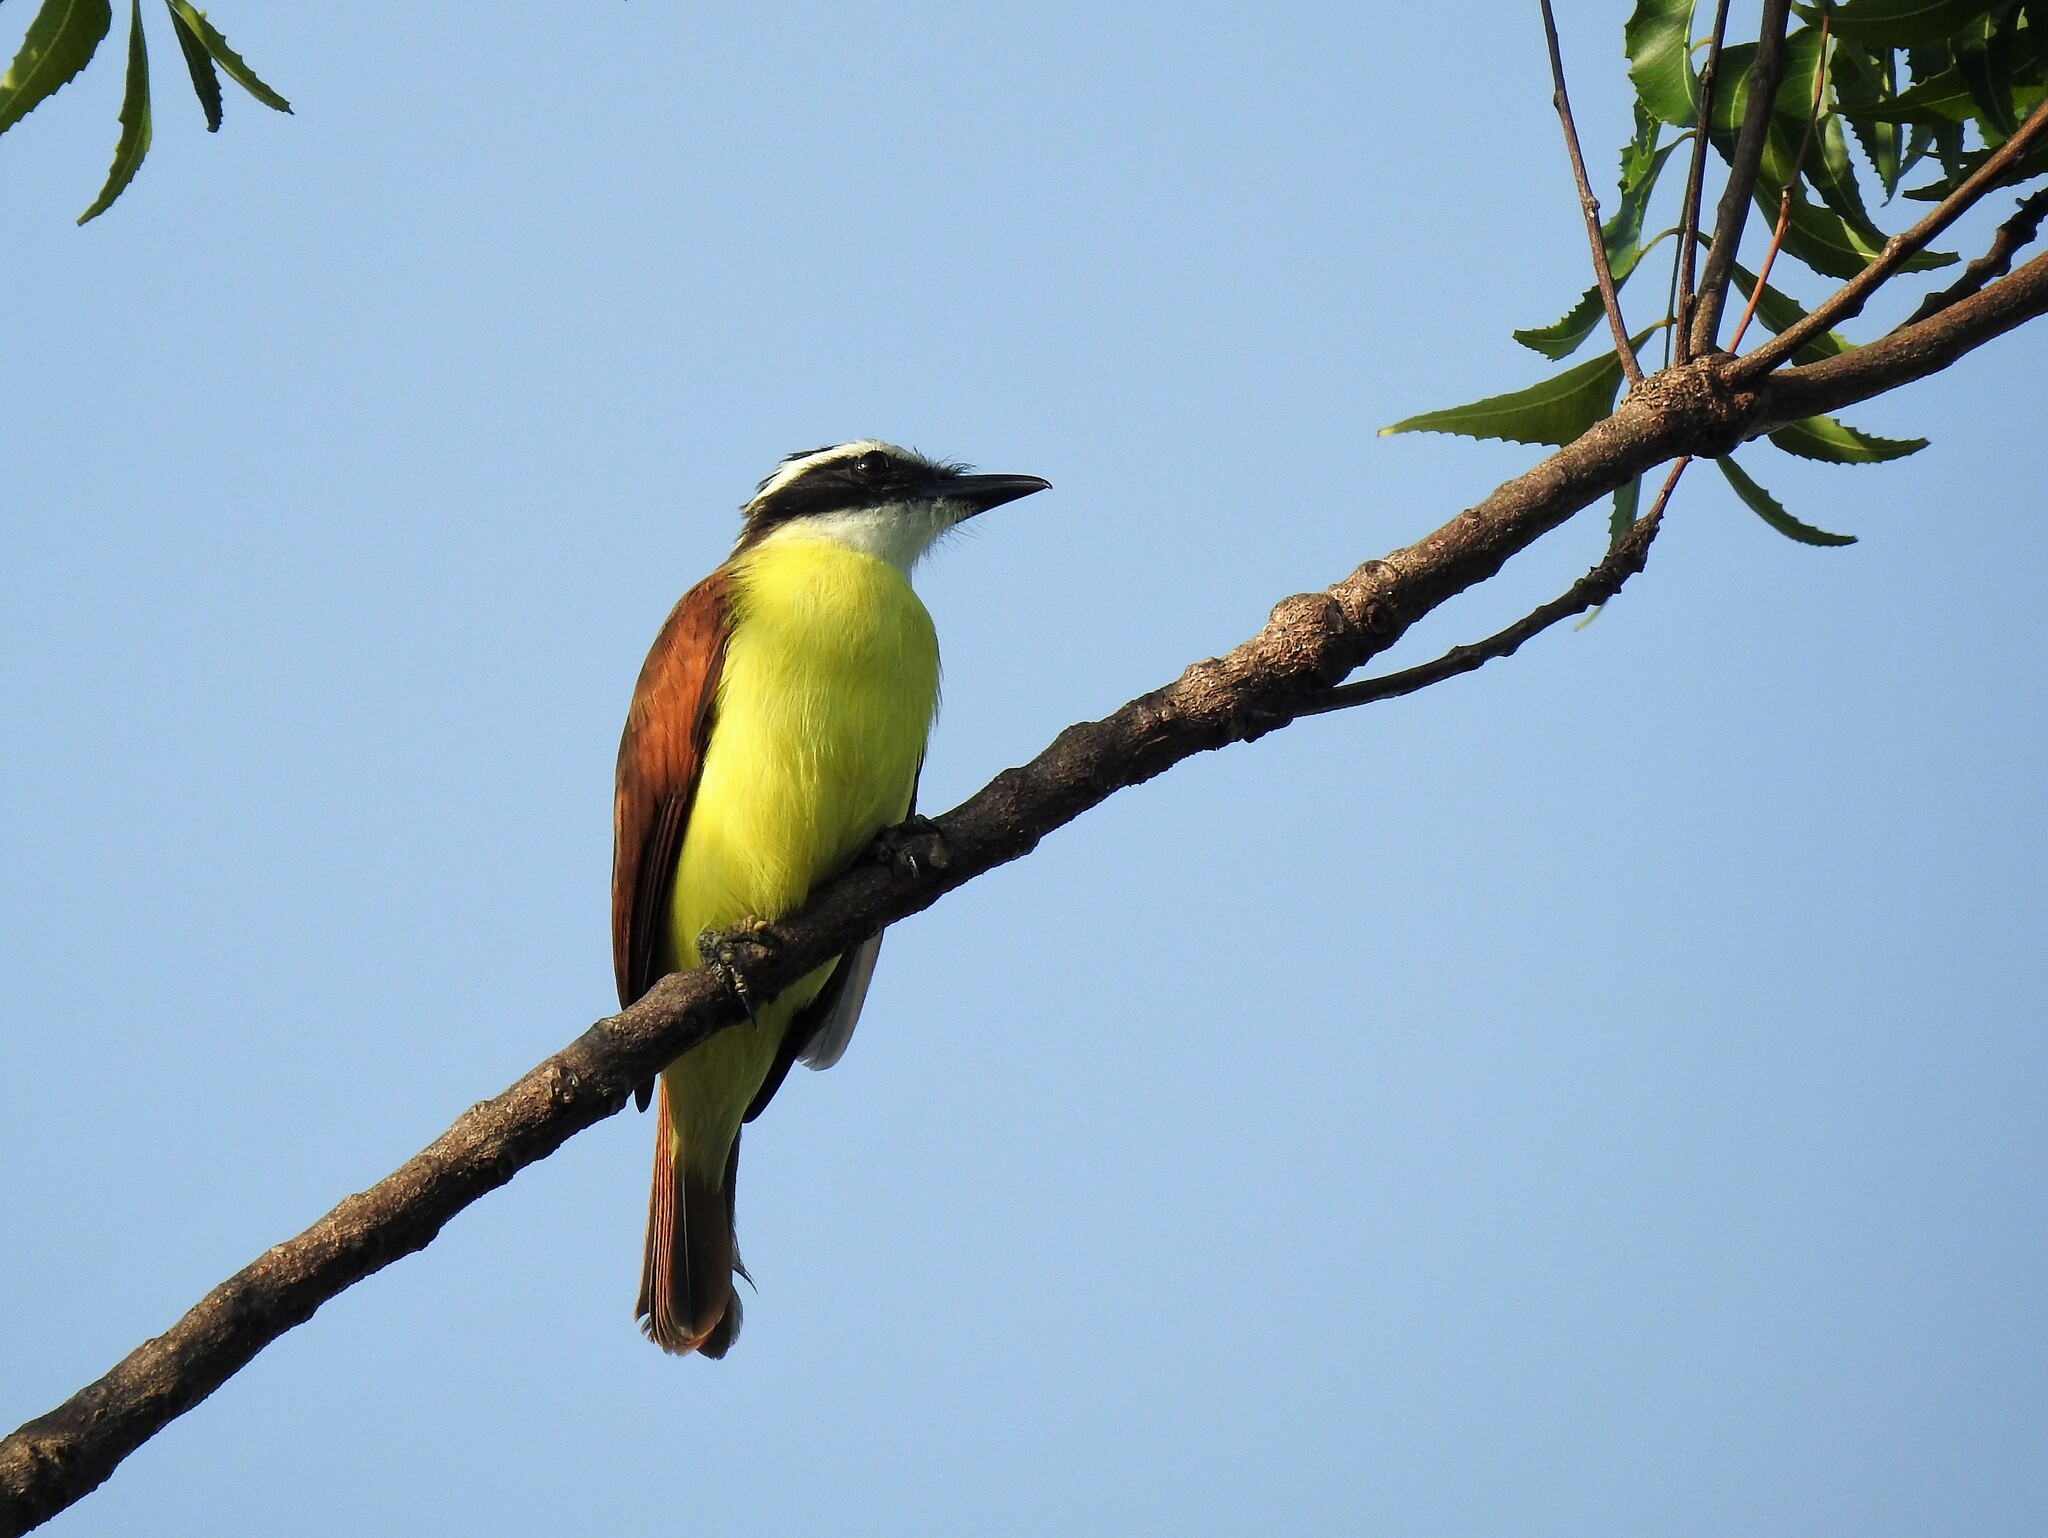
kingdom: Animalia
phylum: Chordata
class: Aves
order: Passeriformes
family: Tyrannidae
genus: Pitangus
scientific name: Pitangus sulphuratus
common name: Great kiskadee
